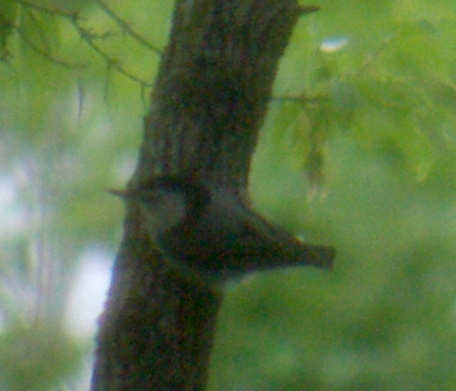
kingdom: Animalia
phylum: Chordata
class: Aves
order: Passeriformes
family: Sittidae
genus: Sitta
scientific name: Sitta carolinensis
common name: White-breasted nuthatch
